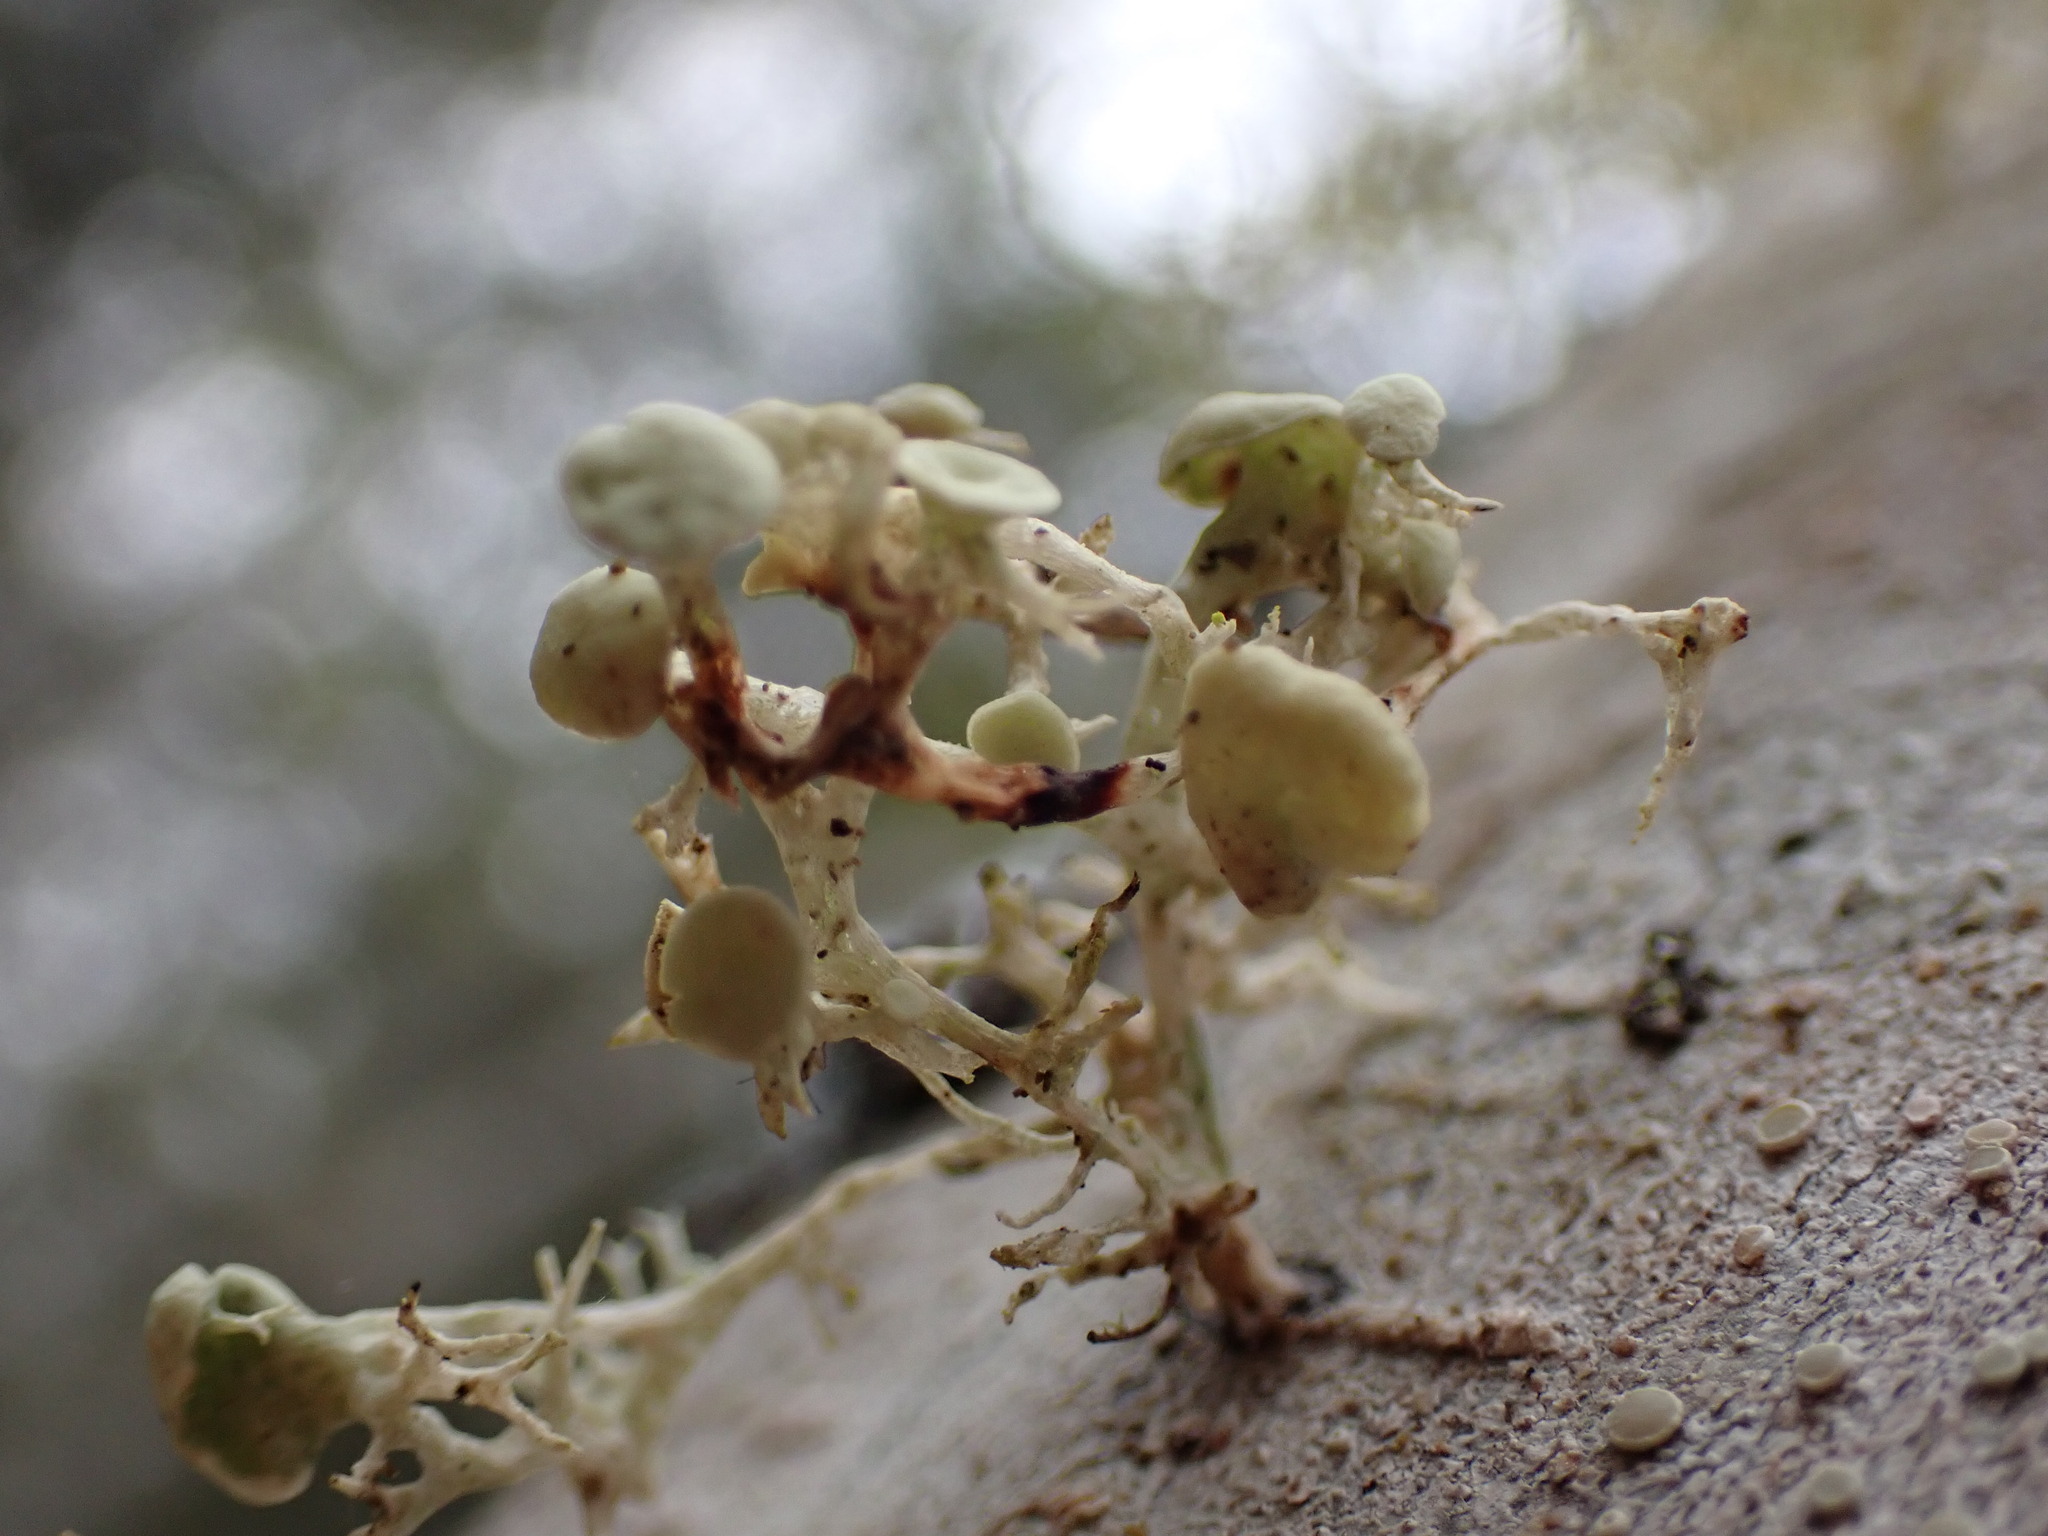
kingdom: Fungi
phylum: Ascomycota
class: Lecanoromycetes
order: Lecanorales
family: Ramalinaceae
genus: Ramalina
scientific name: Ramalina dilacerata
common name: Punctured bushy lichen
